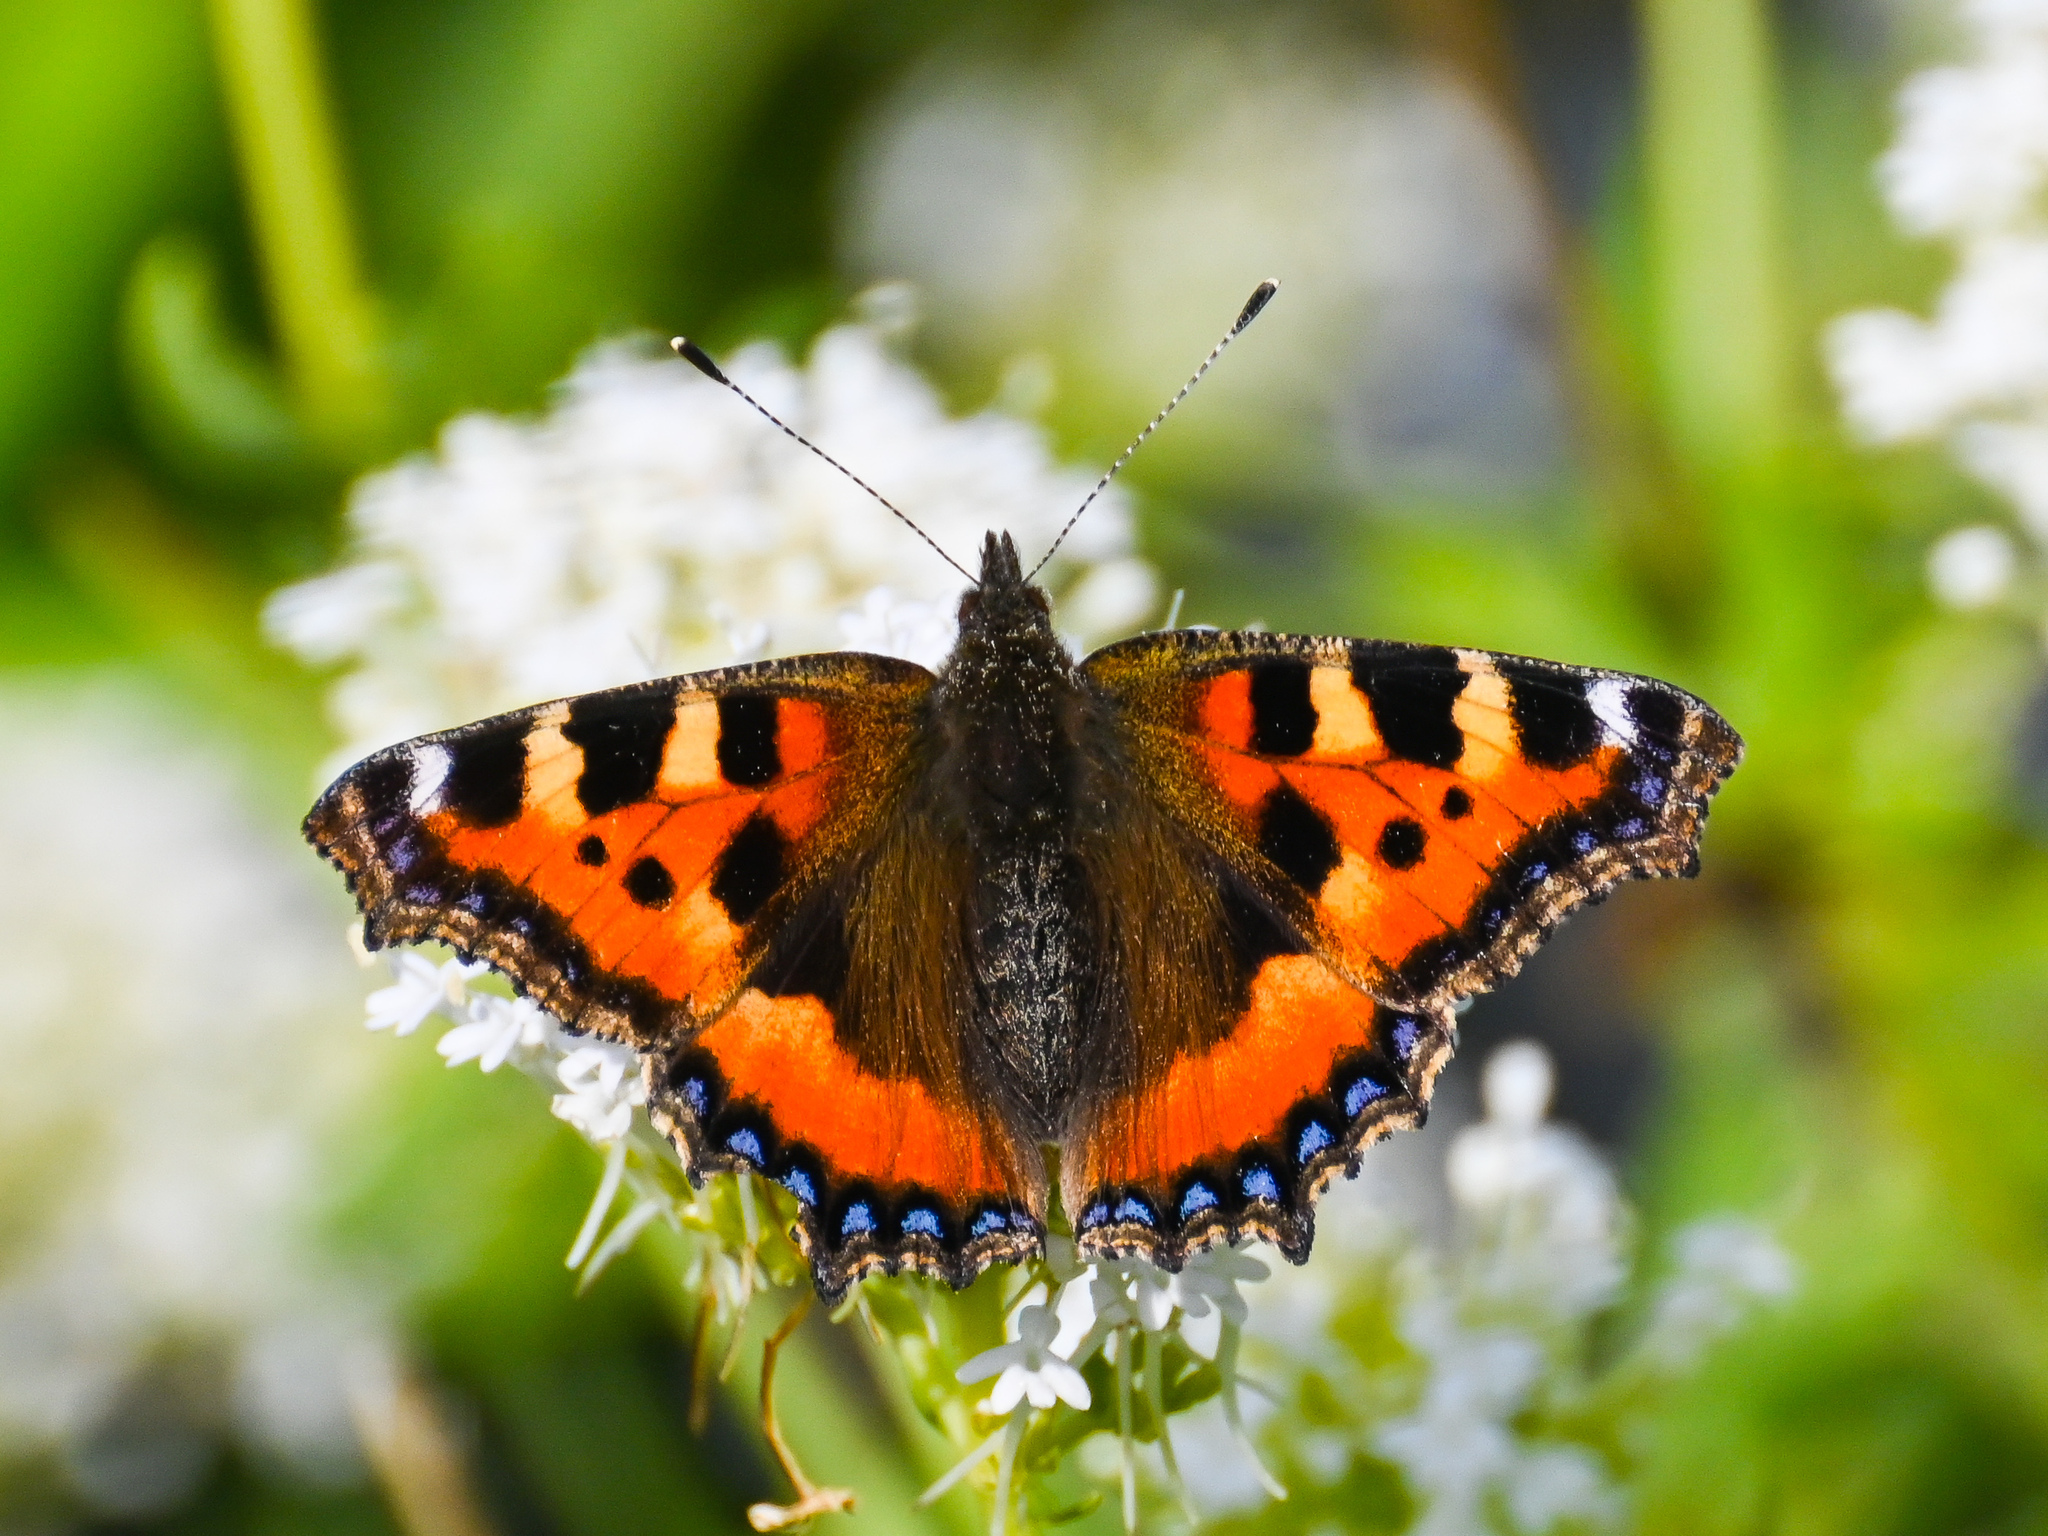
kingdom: Animalia
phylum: Arthropoda
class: Insecta
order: Lepidoptera
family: Nymphalidae
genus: Aglais
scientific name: Aglais urticae
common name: Small tortoiseshell
